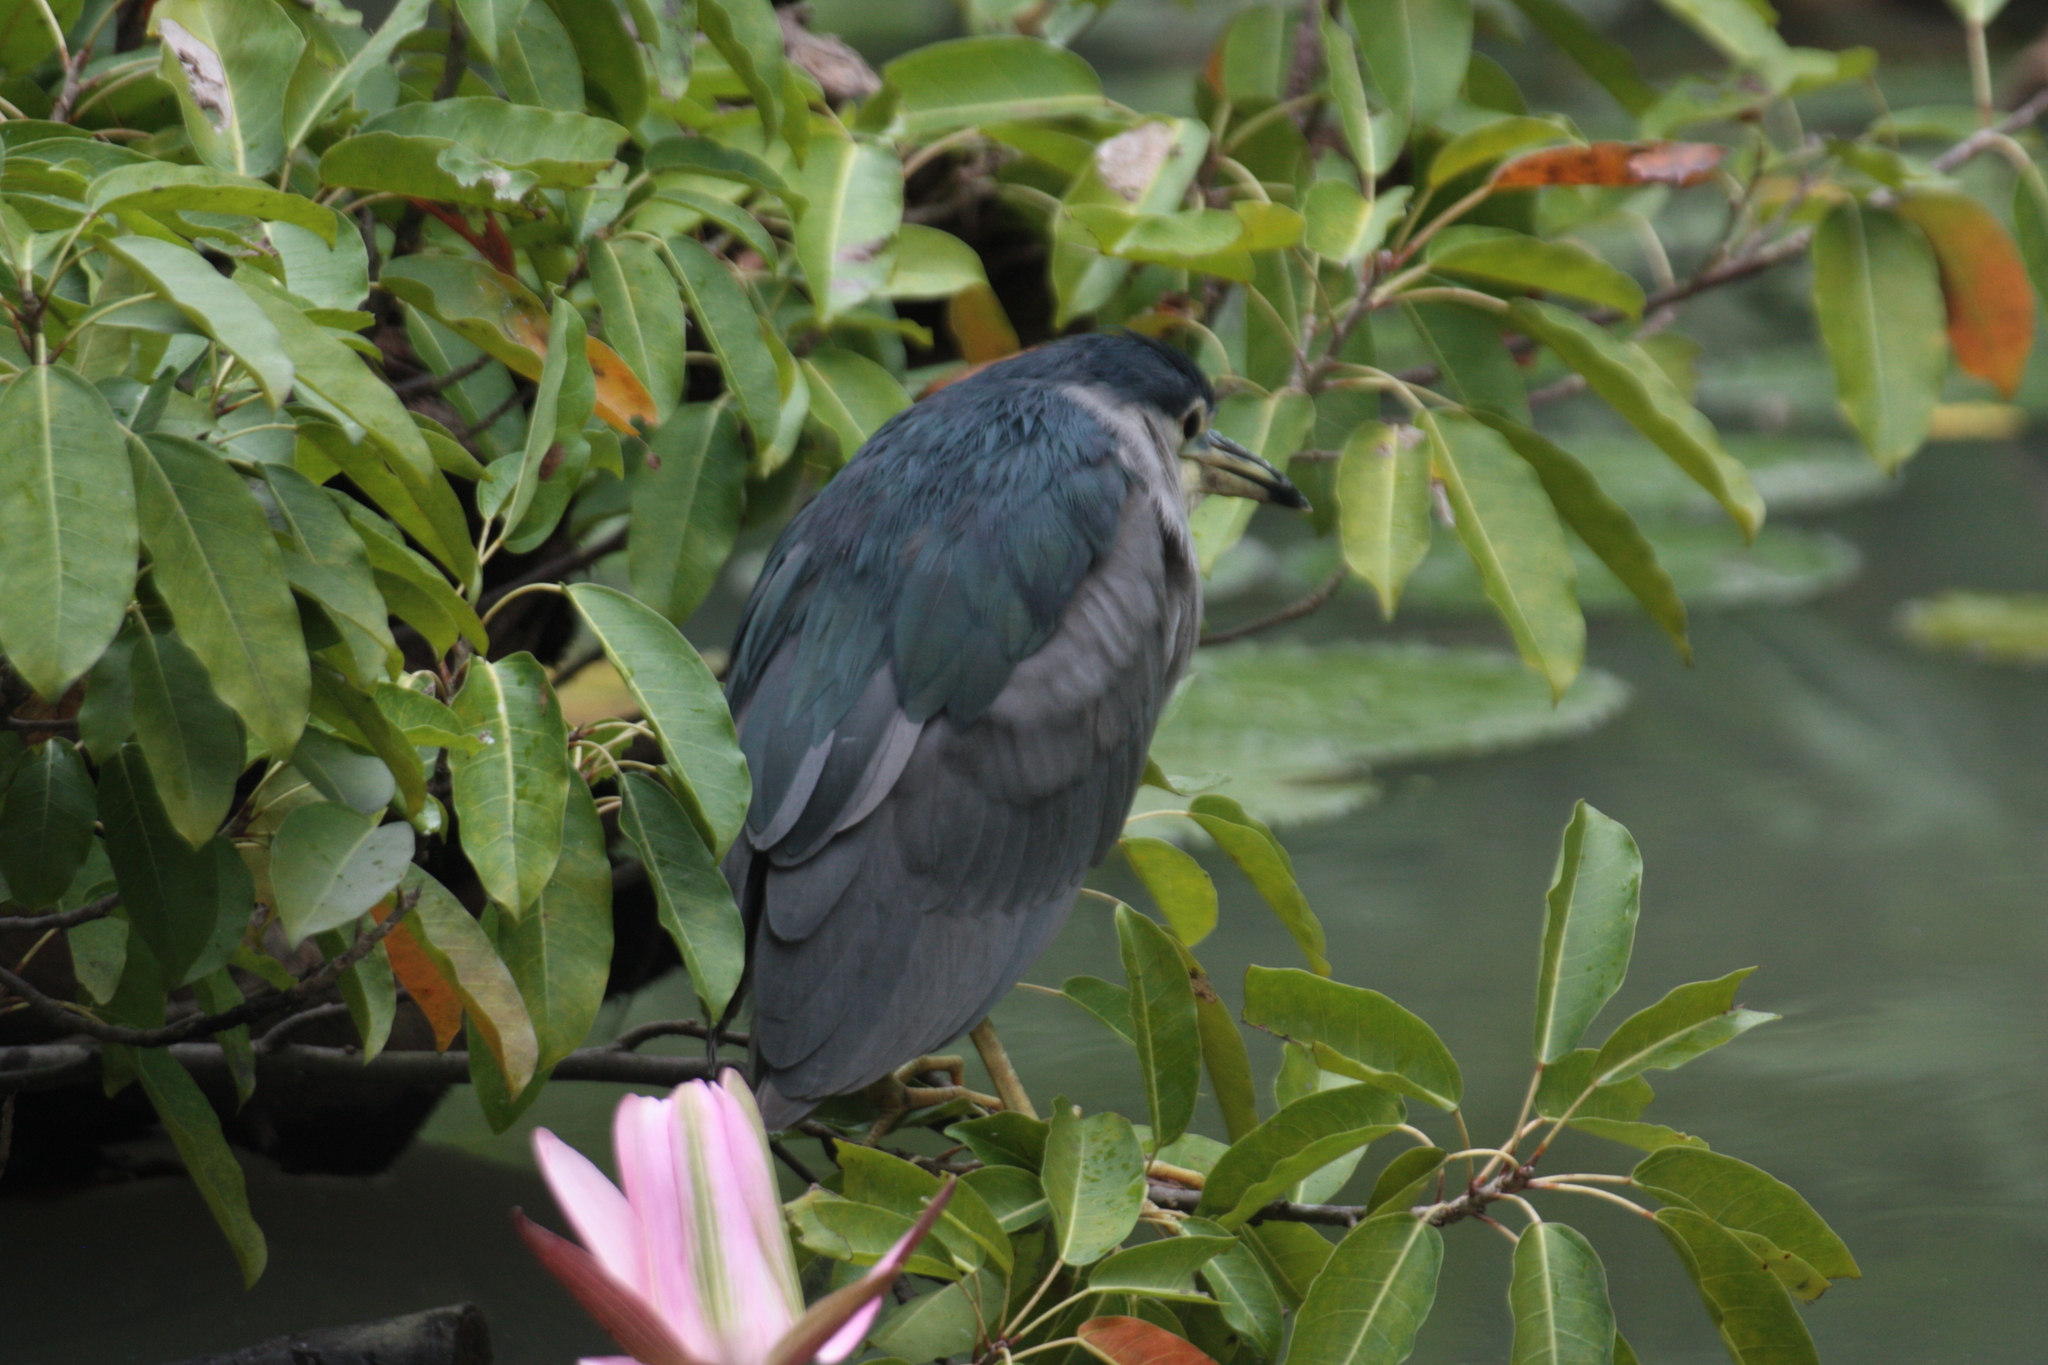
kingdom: Animalia
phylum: Chordata
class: Aves
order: Pelecaniformes
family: Ardeidae
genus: Nycticorax
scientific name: Nycticorax nycticorax
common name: Black-crowned night heron
